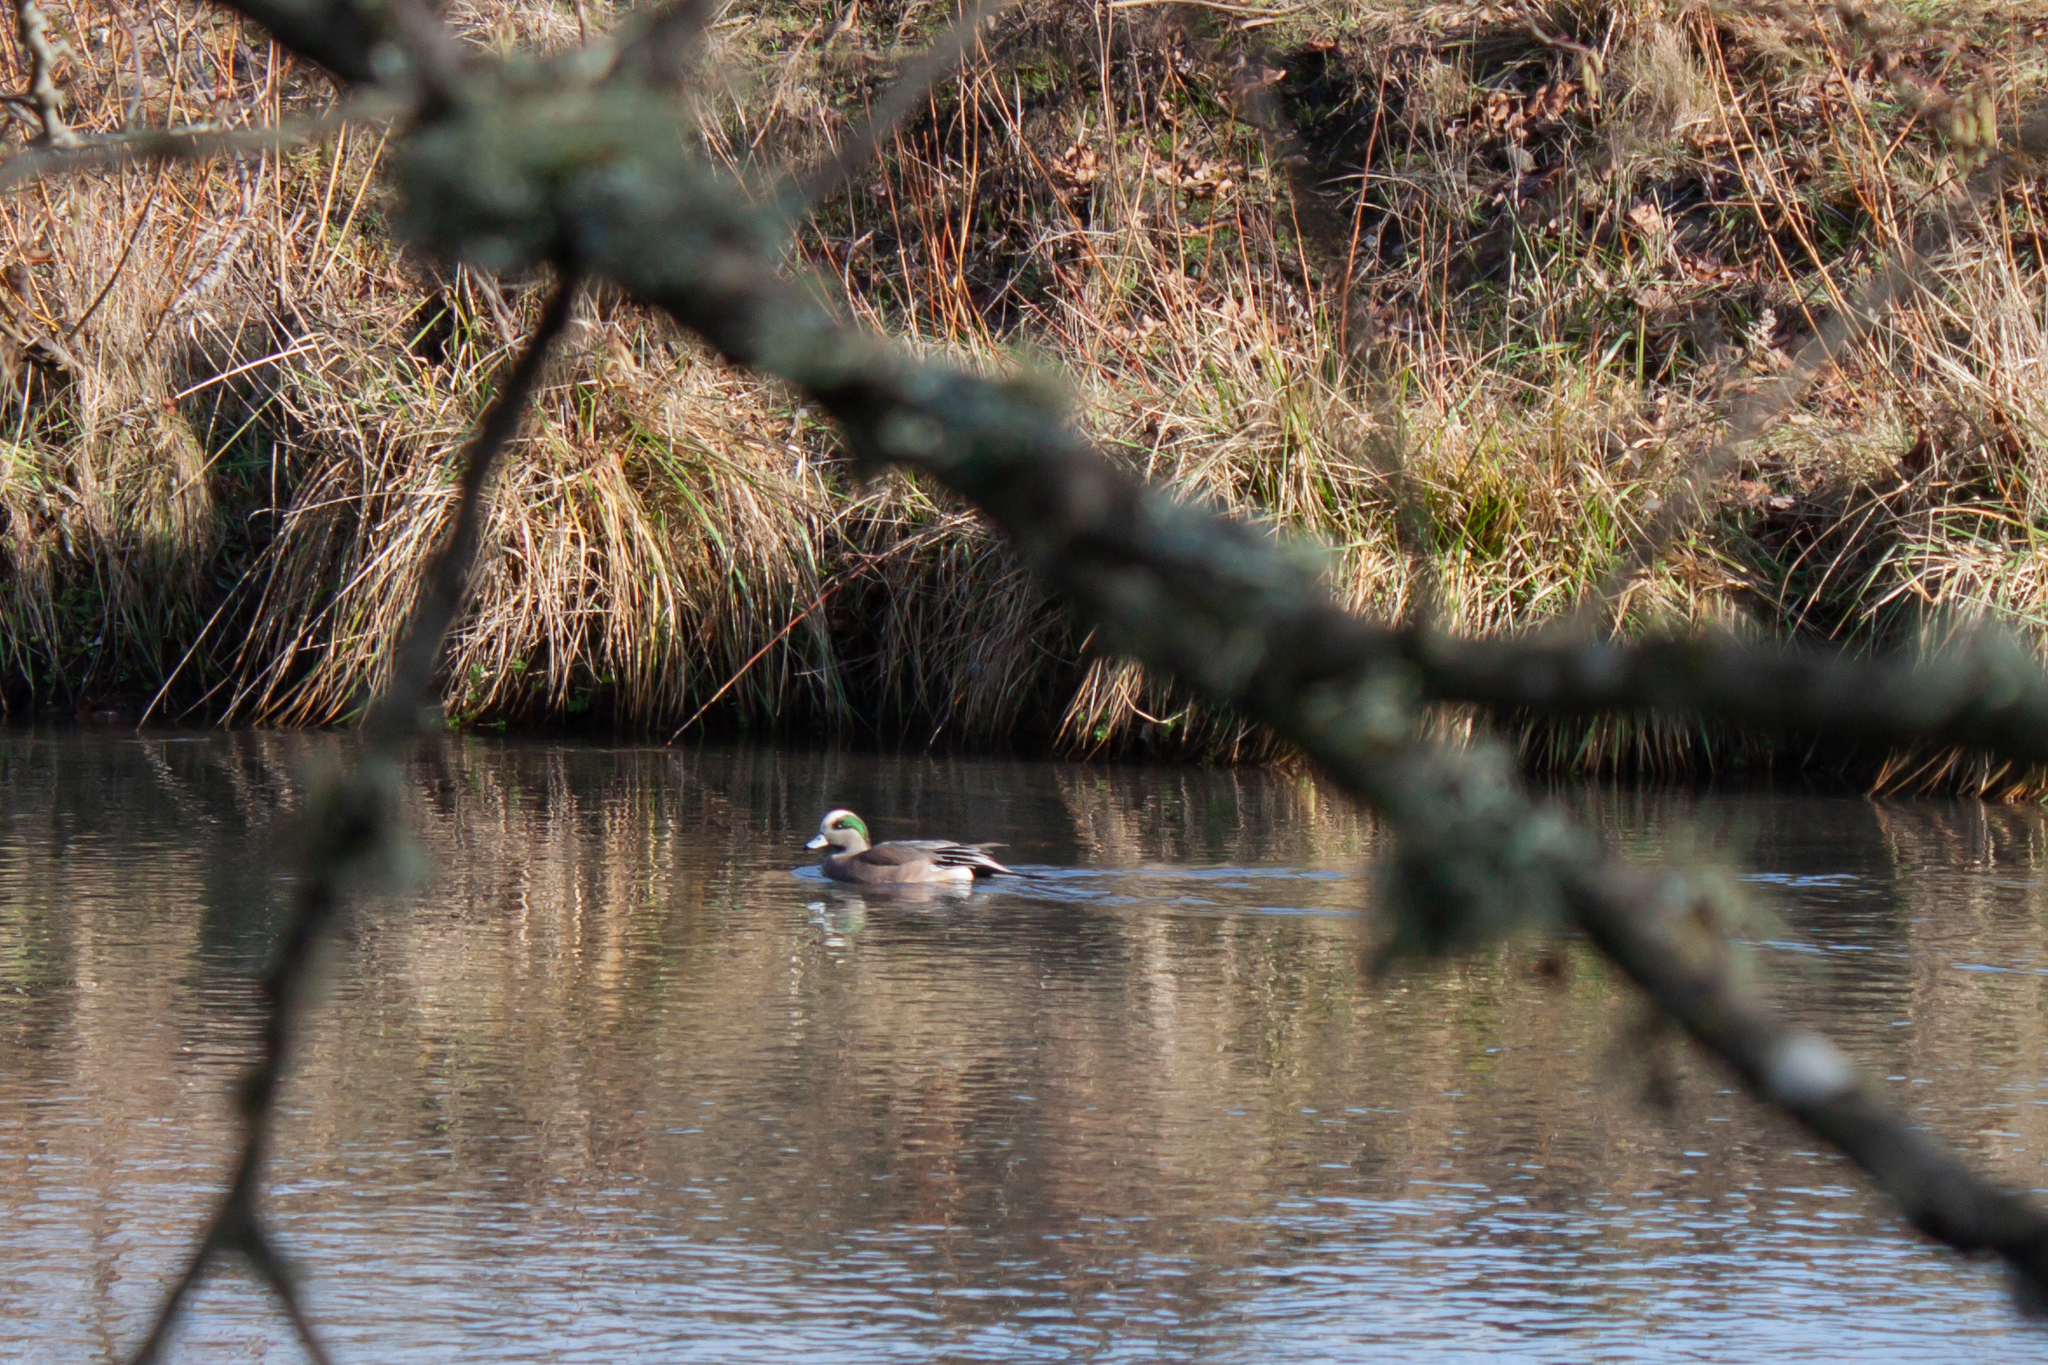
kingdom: Animalia
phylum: Chordata
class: Aves
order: Anseriformes
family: Anatidae
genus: Mareca
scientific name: Mareca americana
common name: American wigeon
